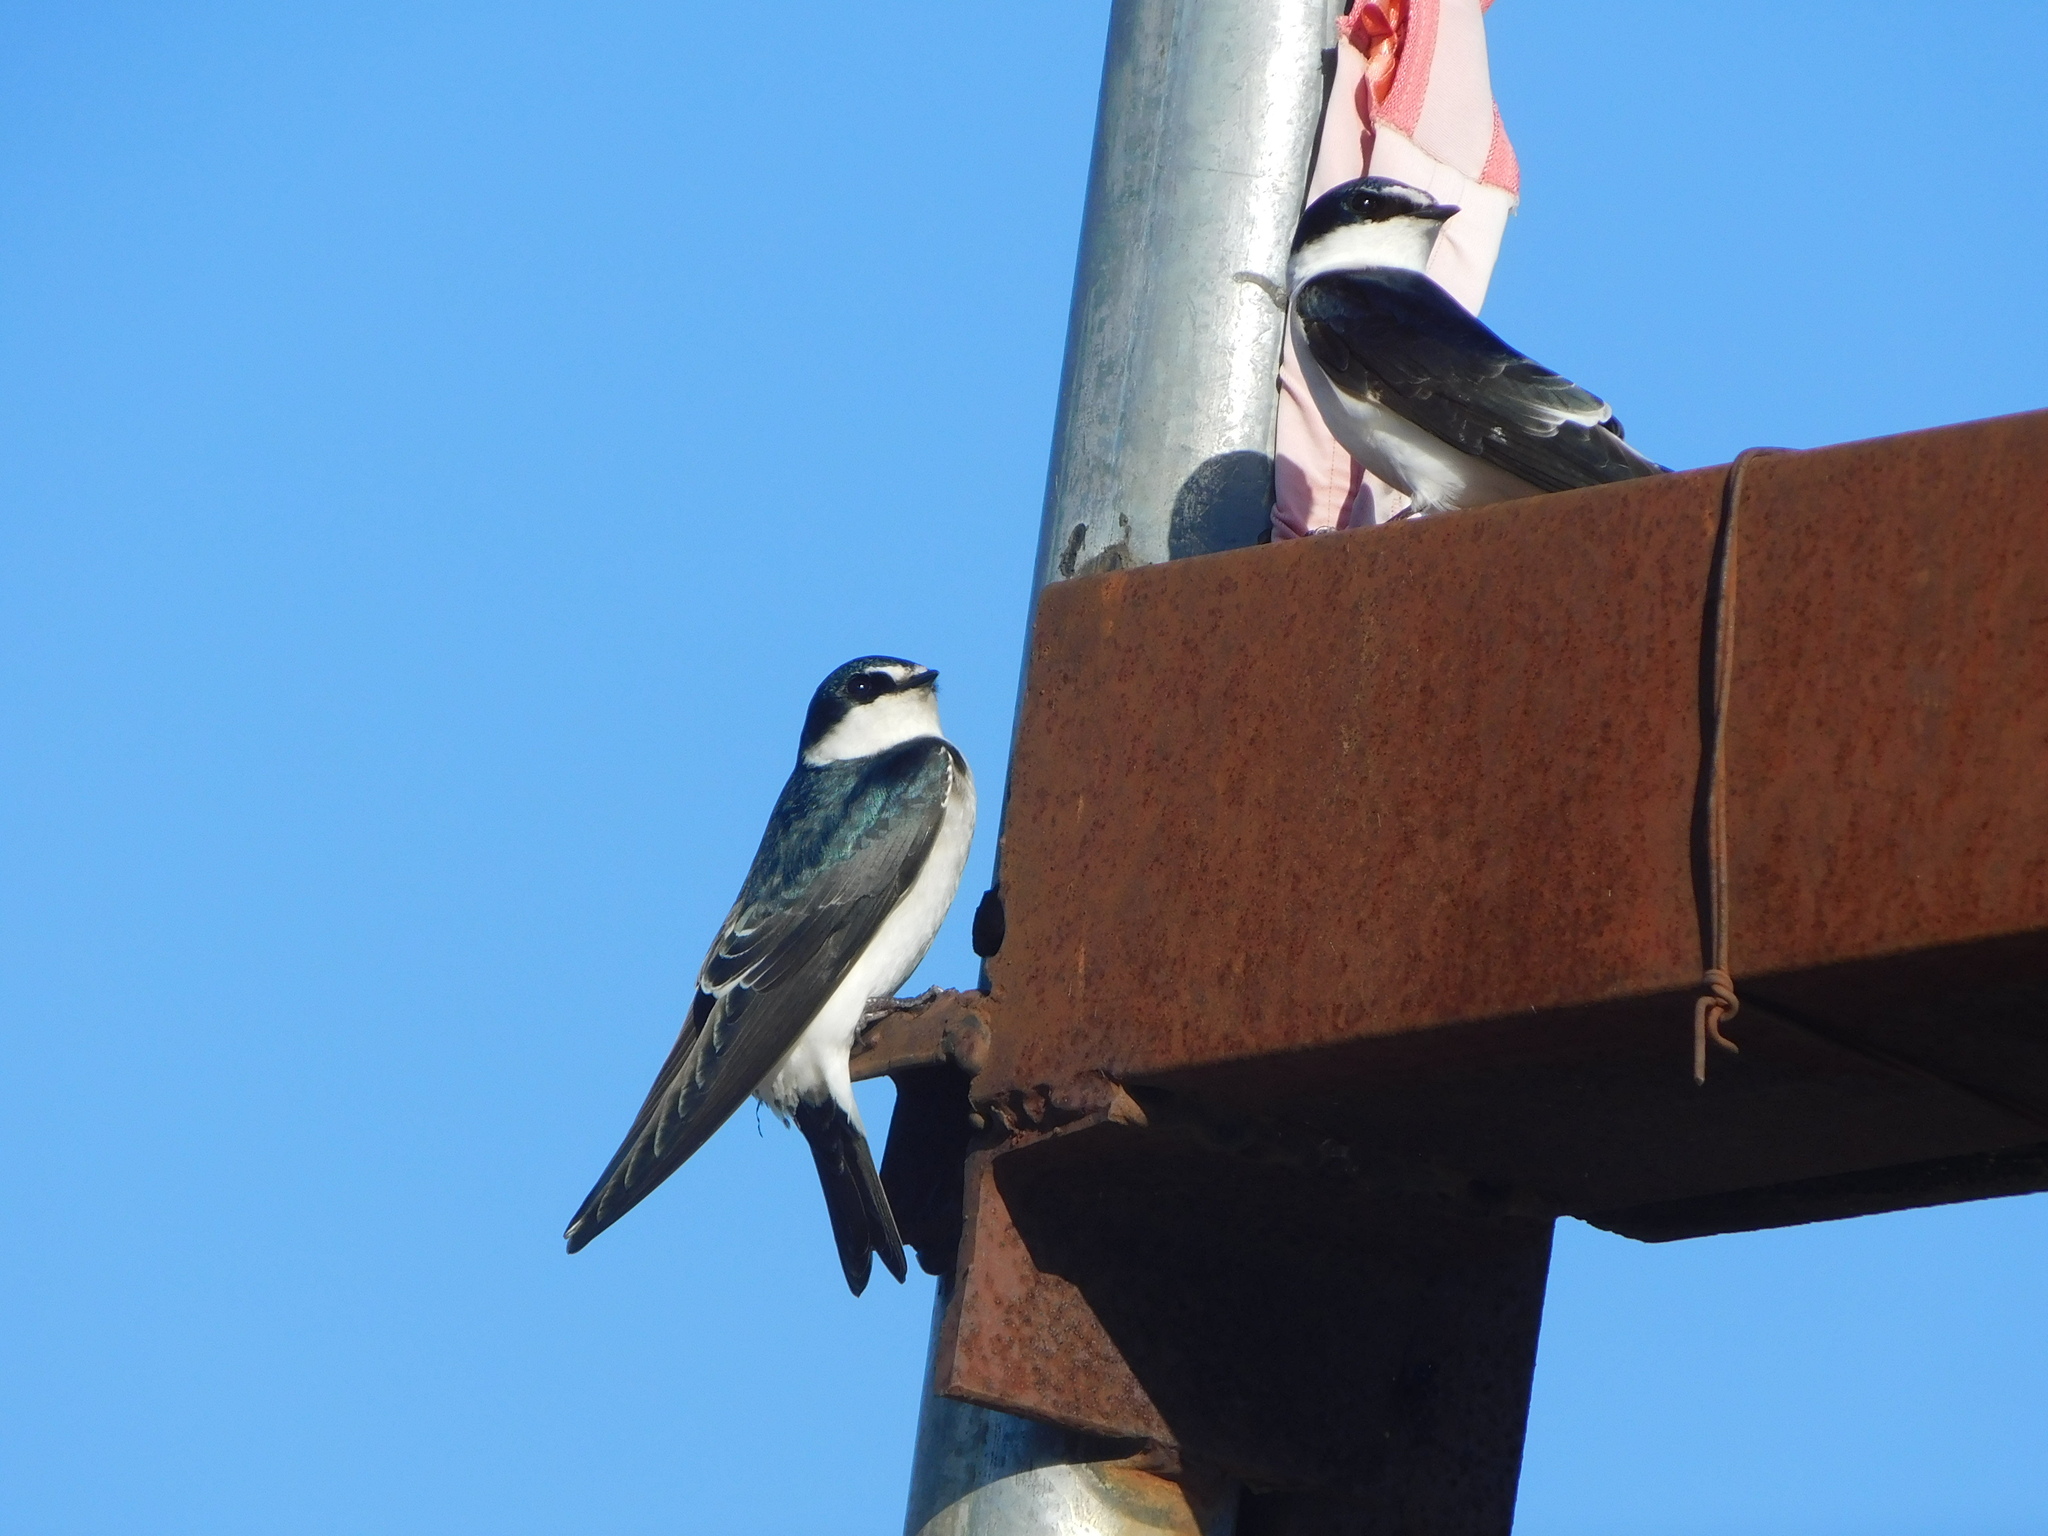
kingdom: Animalia
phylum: Chordata
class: Aves
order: Passeriformes
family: Hirundinidae
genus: Tachycineta
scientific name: Tachycineta leucorrhoa
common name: White-rumped swallow
